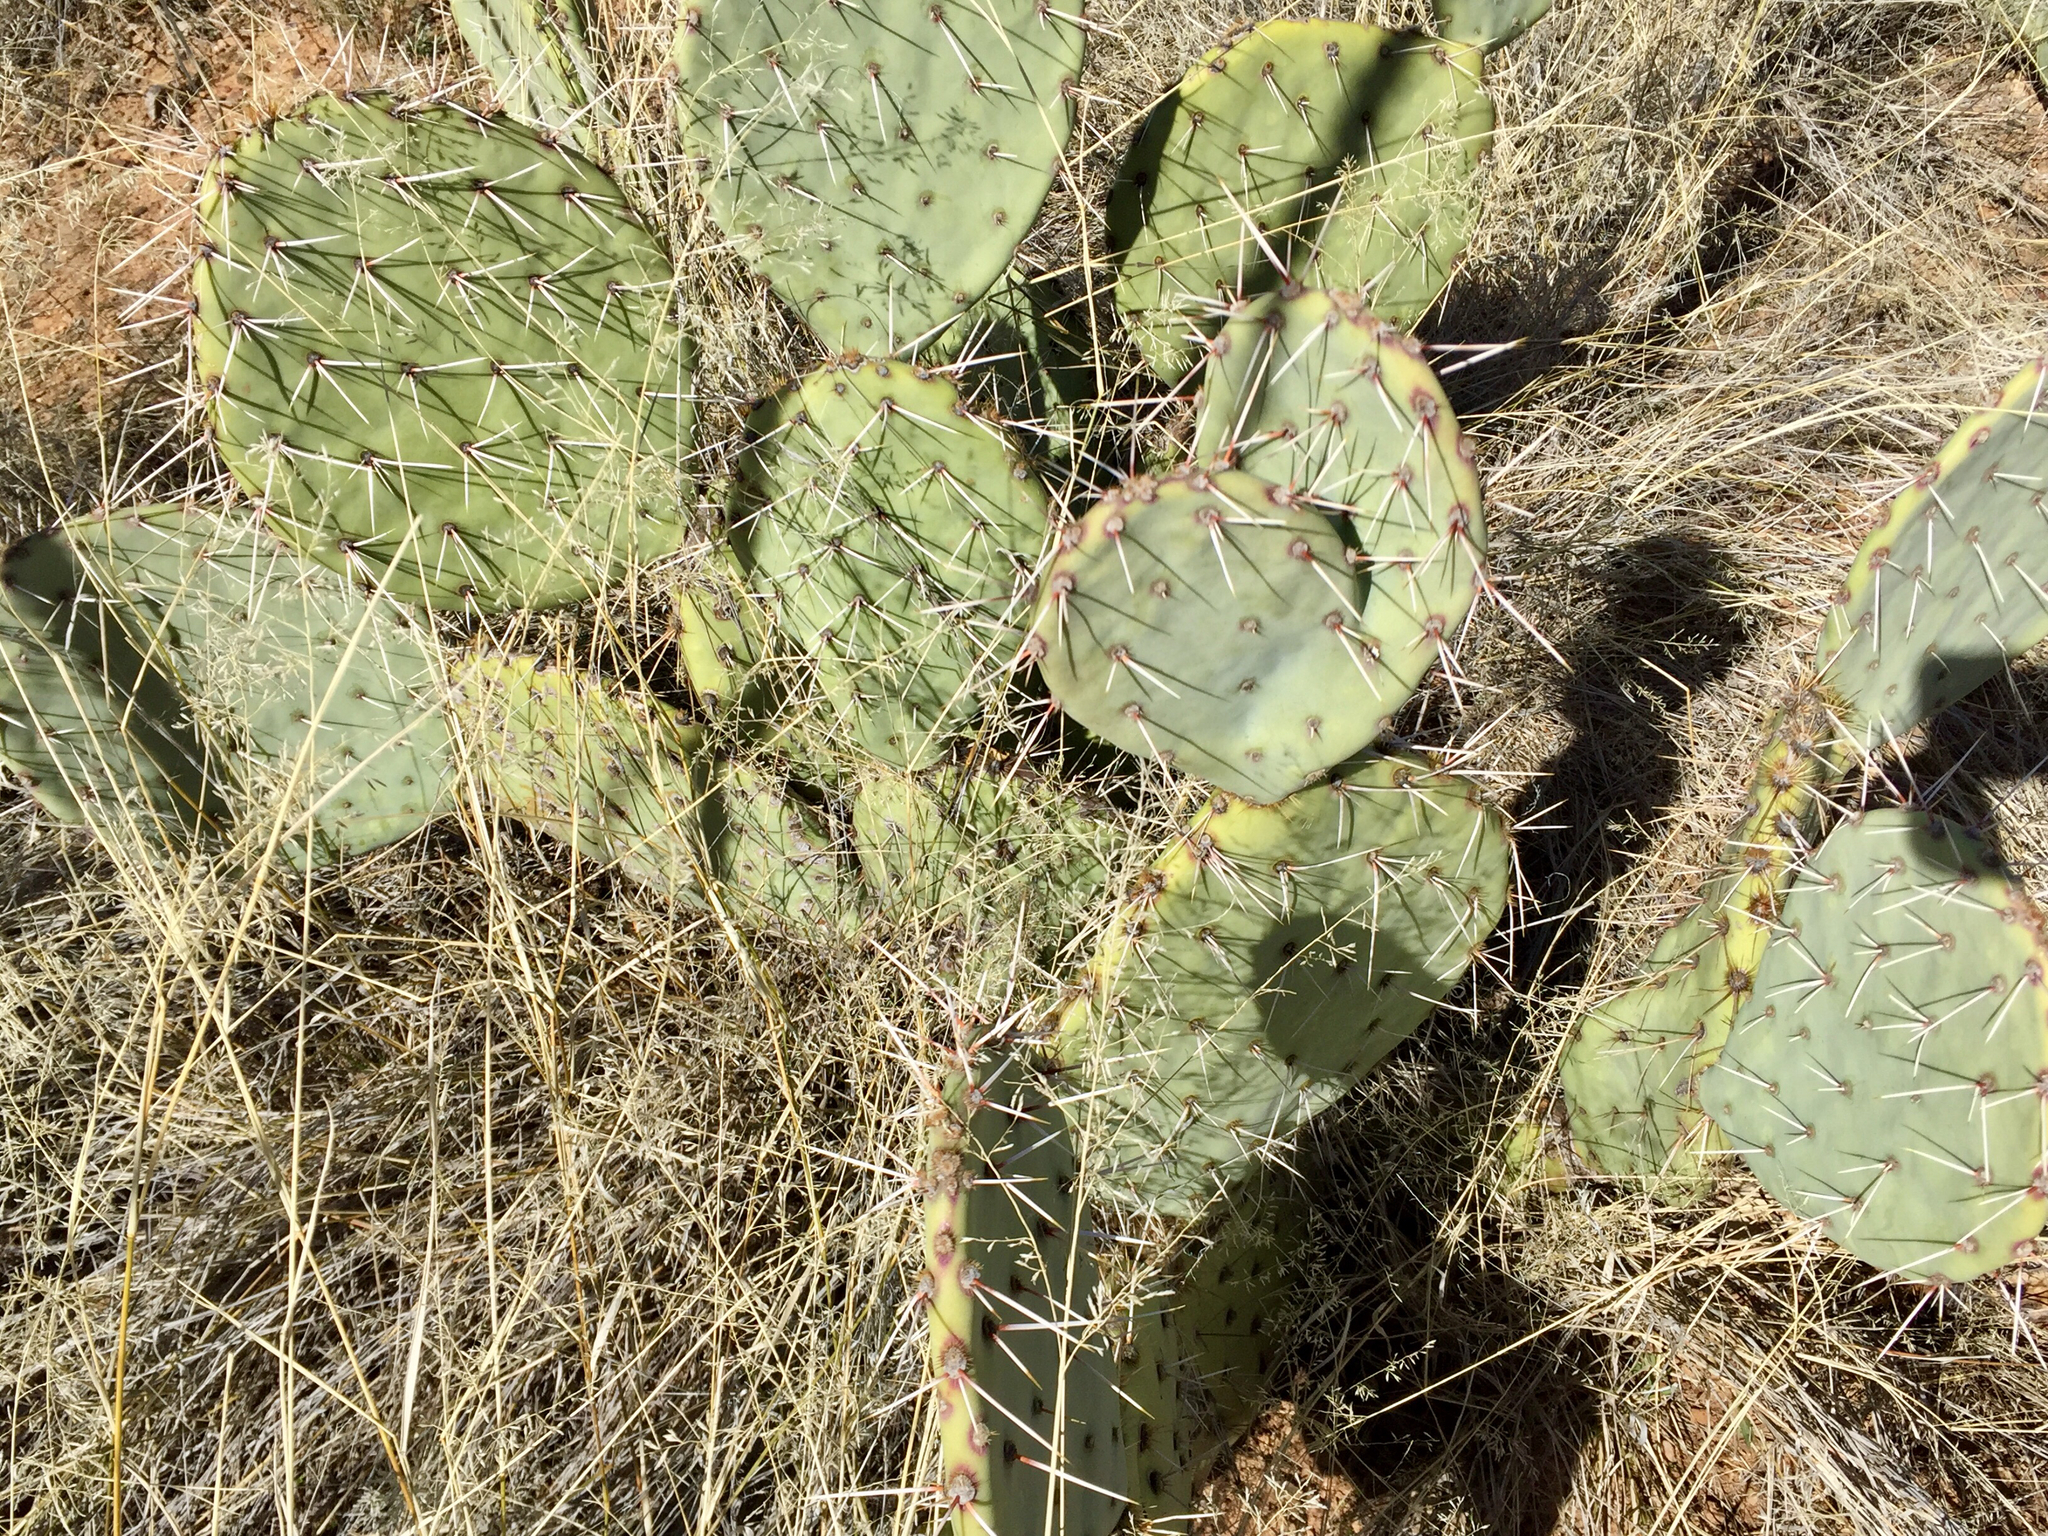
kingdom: Plantae
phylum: Tracheophyta
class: Magnoliopsida
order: Caryophyllales
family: Cactaceae
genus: Opuntia
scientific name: Opuntia engelmannii
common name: Cactus-apple
